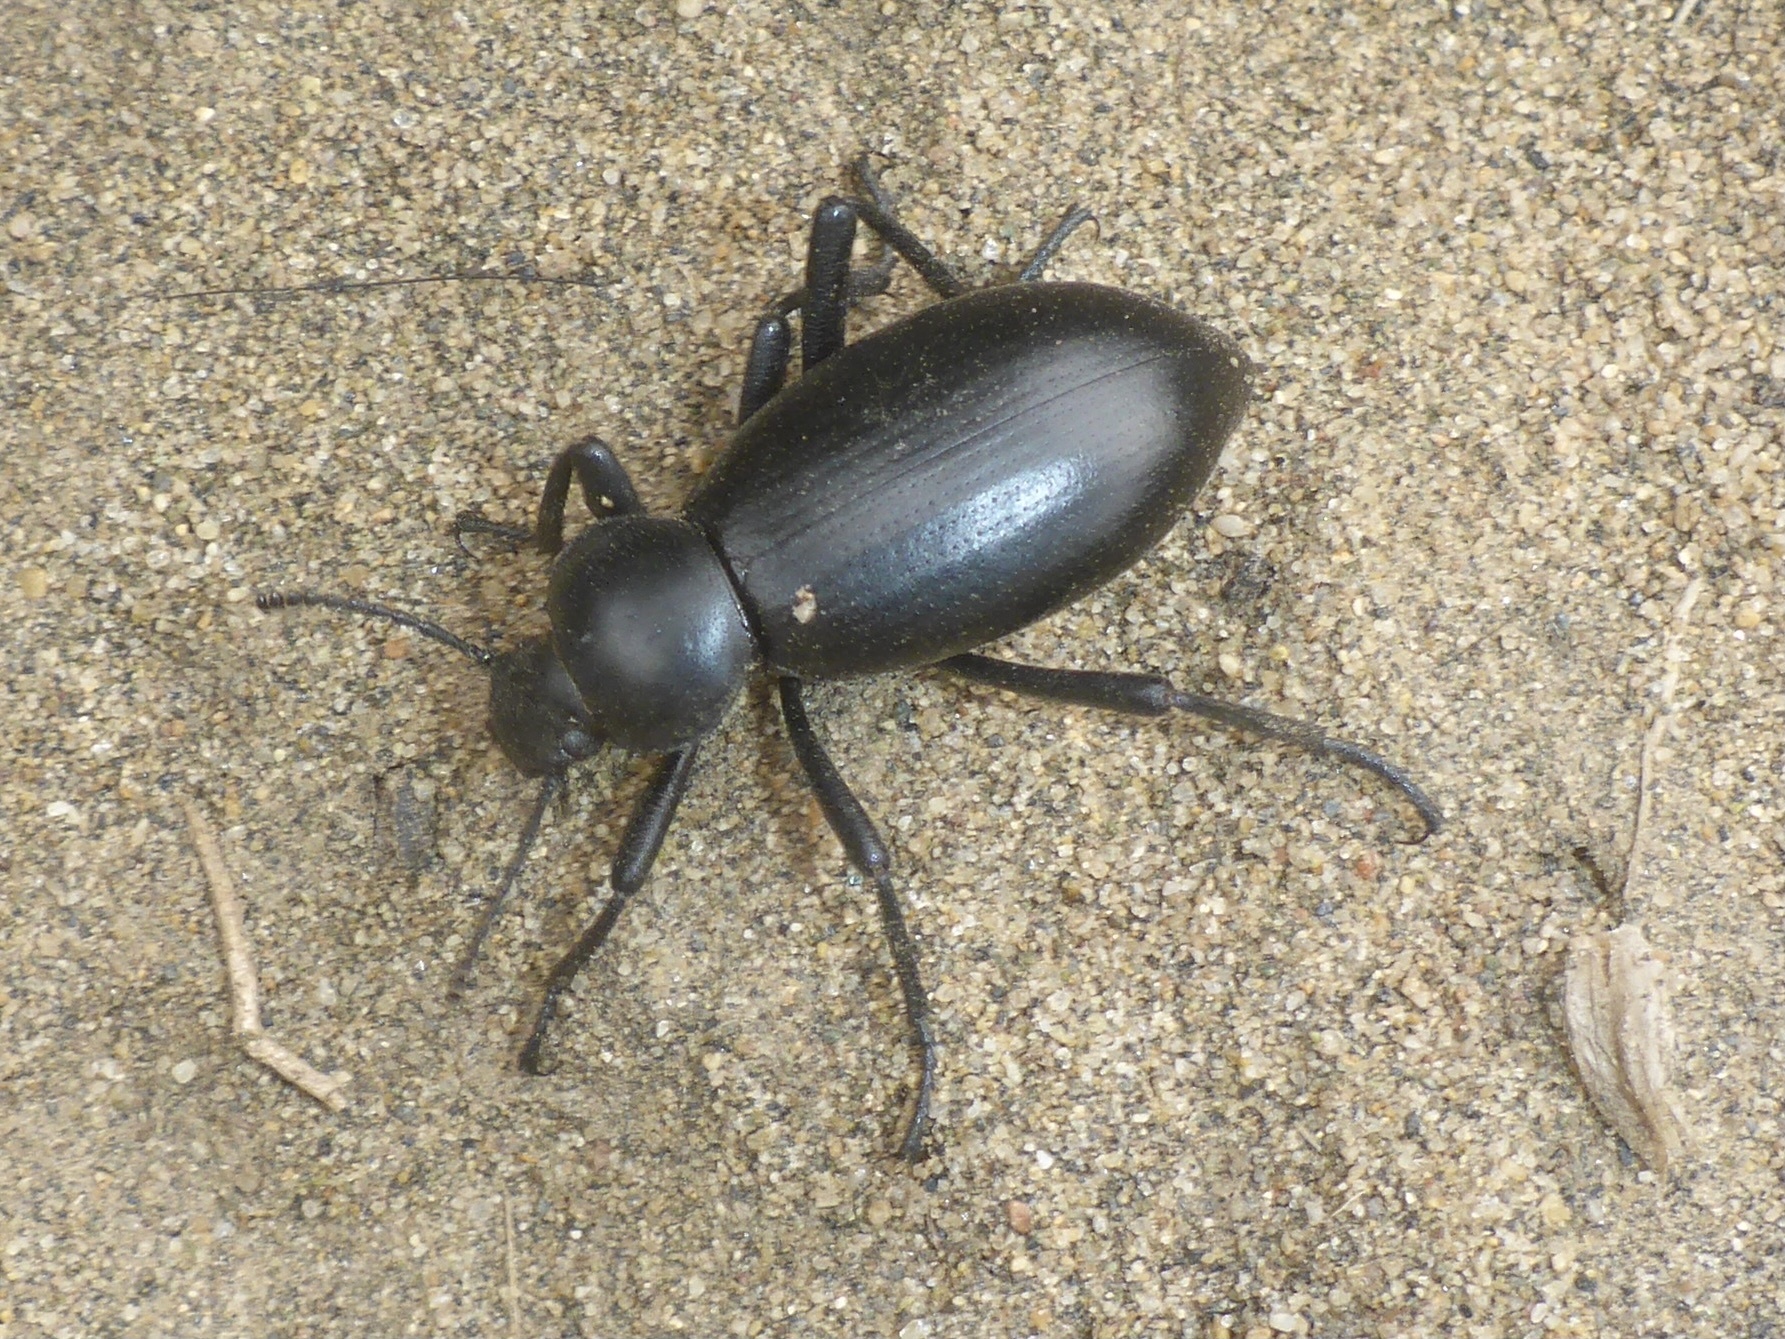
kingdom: Animalia
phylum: Arthropoda
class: Insecta
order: Coleoptera
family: Tenebrionidae
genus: Eleodes
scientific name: Eleodes dentipes
